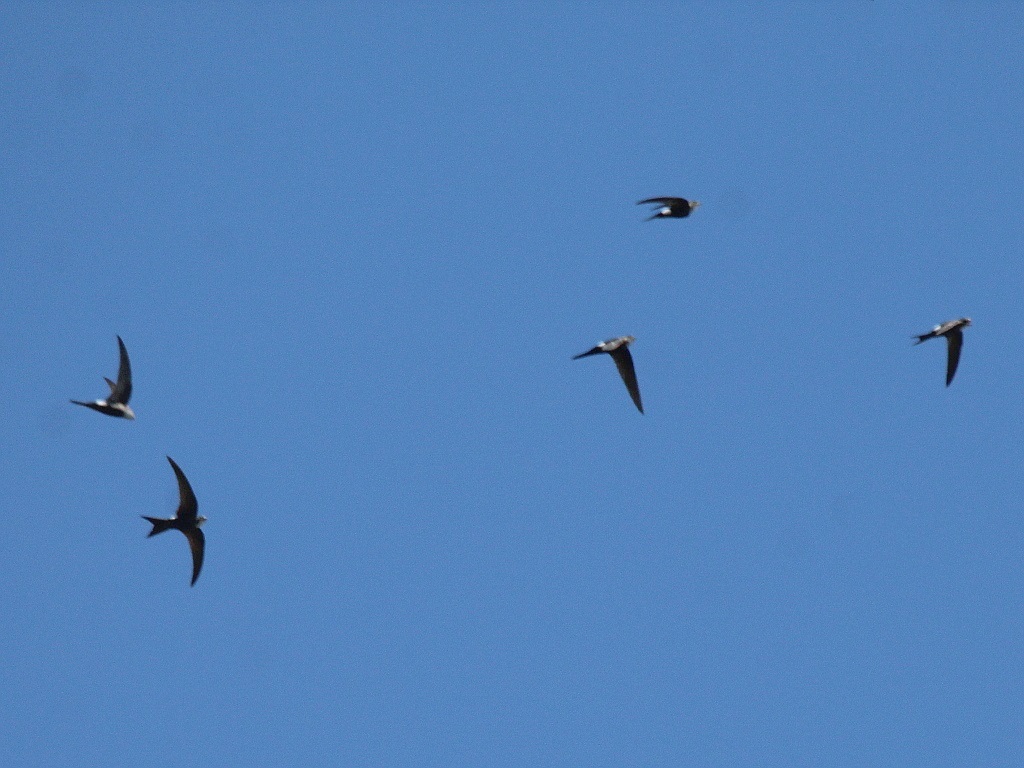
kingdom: Animalia
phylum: Chordata
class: Aves
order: Apodiformes
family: Apodidae
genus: Apus
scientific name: Apus pacificus
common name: Pacific swift
